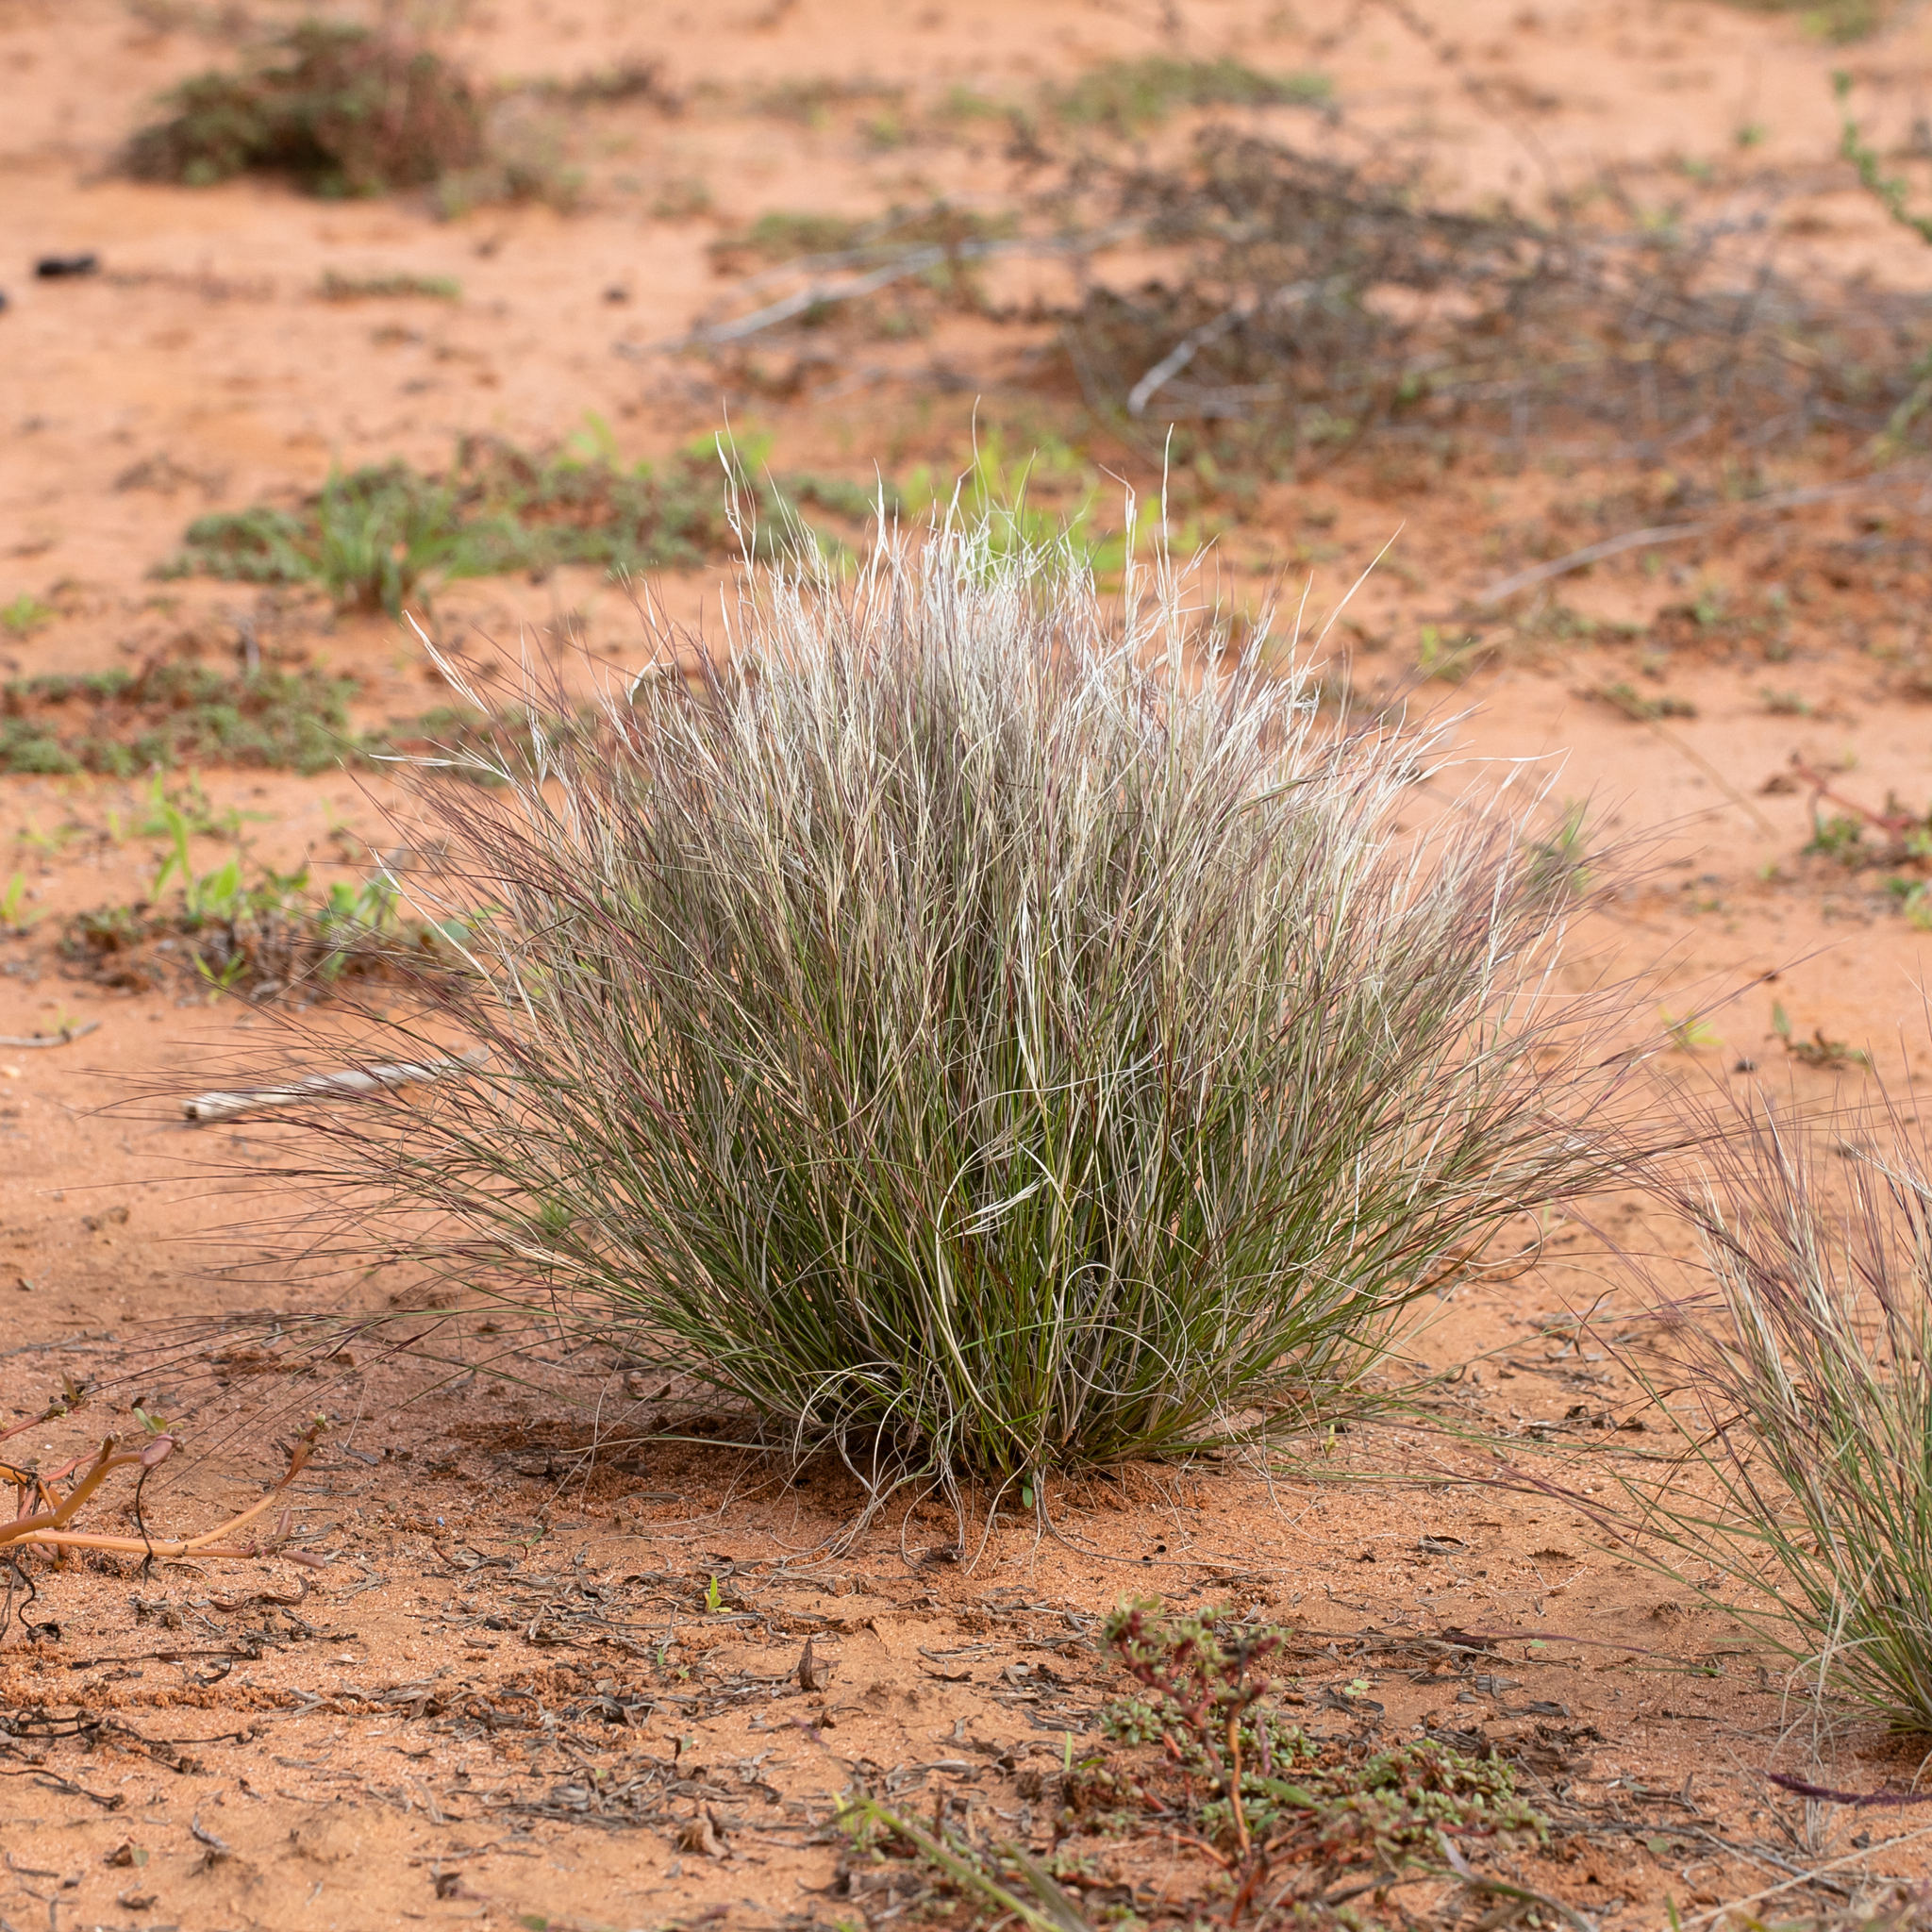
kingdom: Plantae
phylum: Tracheophyta
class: Liliopsida
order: Poales
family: Poaceae
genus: Aristida
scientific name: Aristida contorta
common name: Bunch kerosene grass
